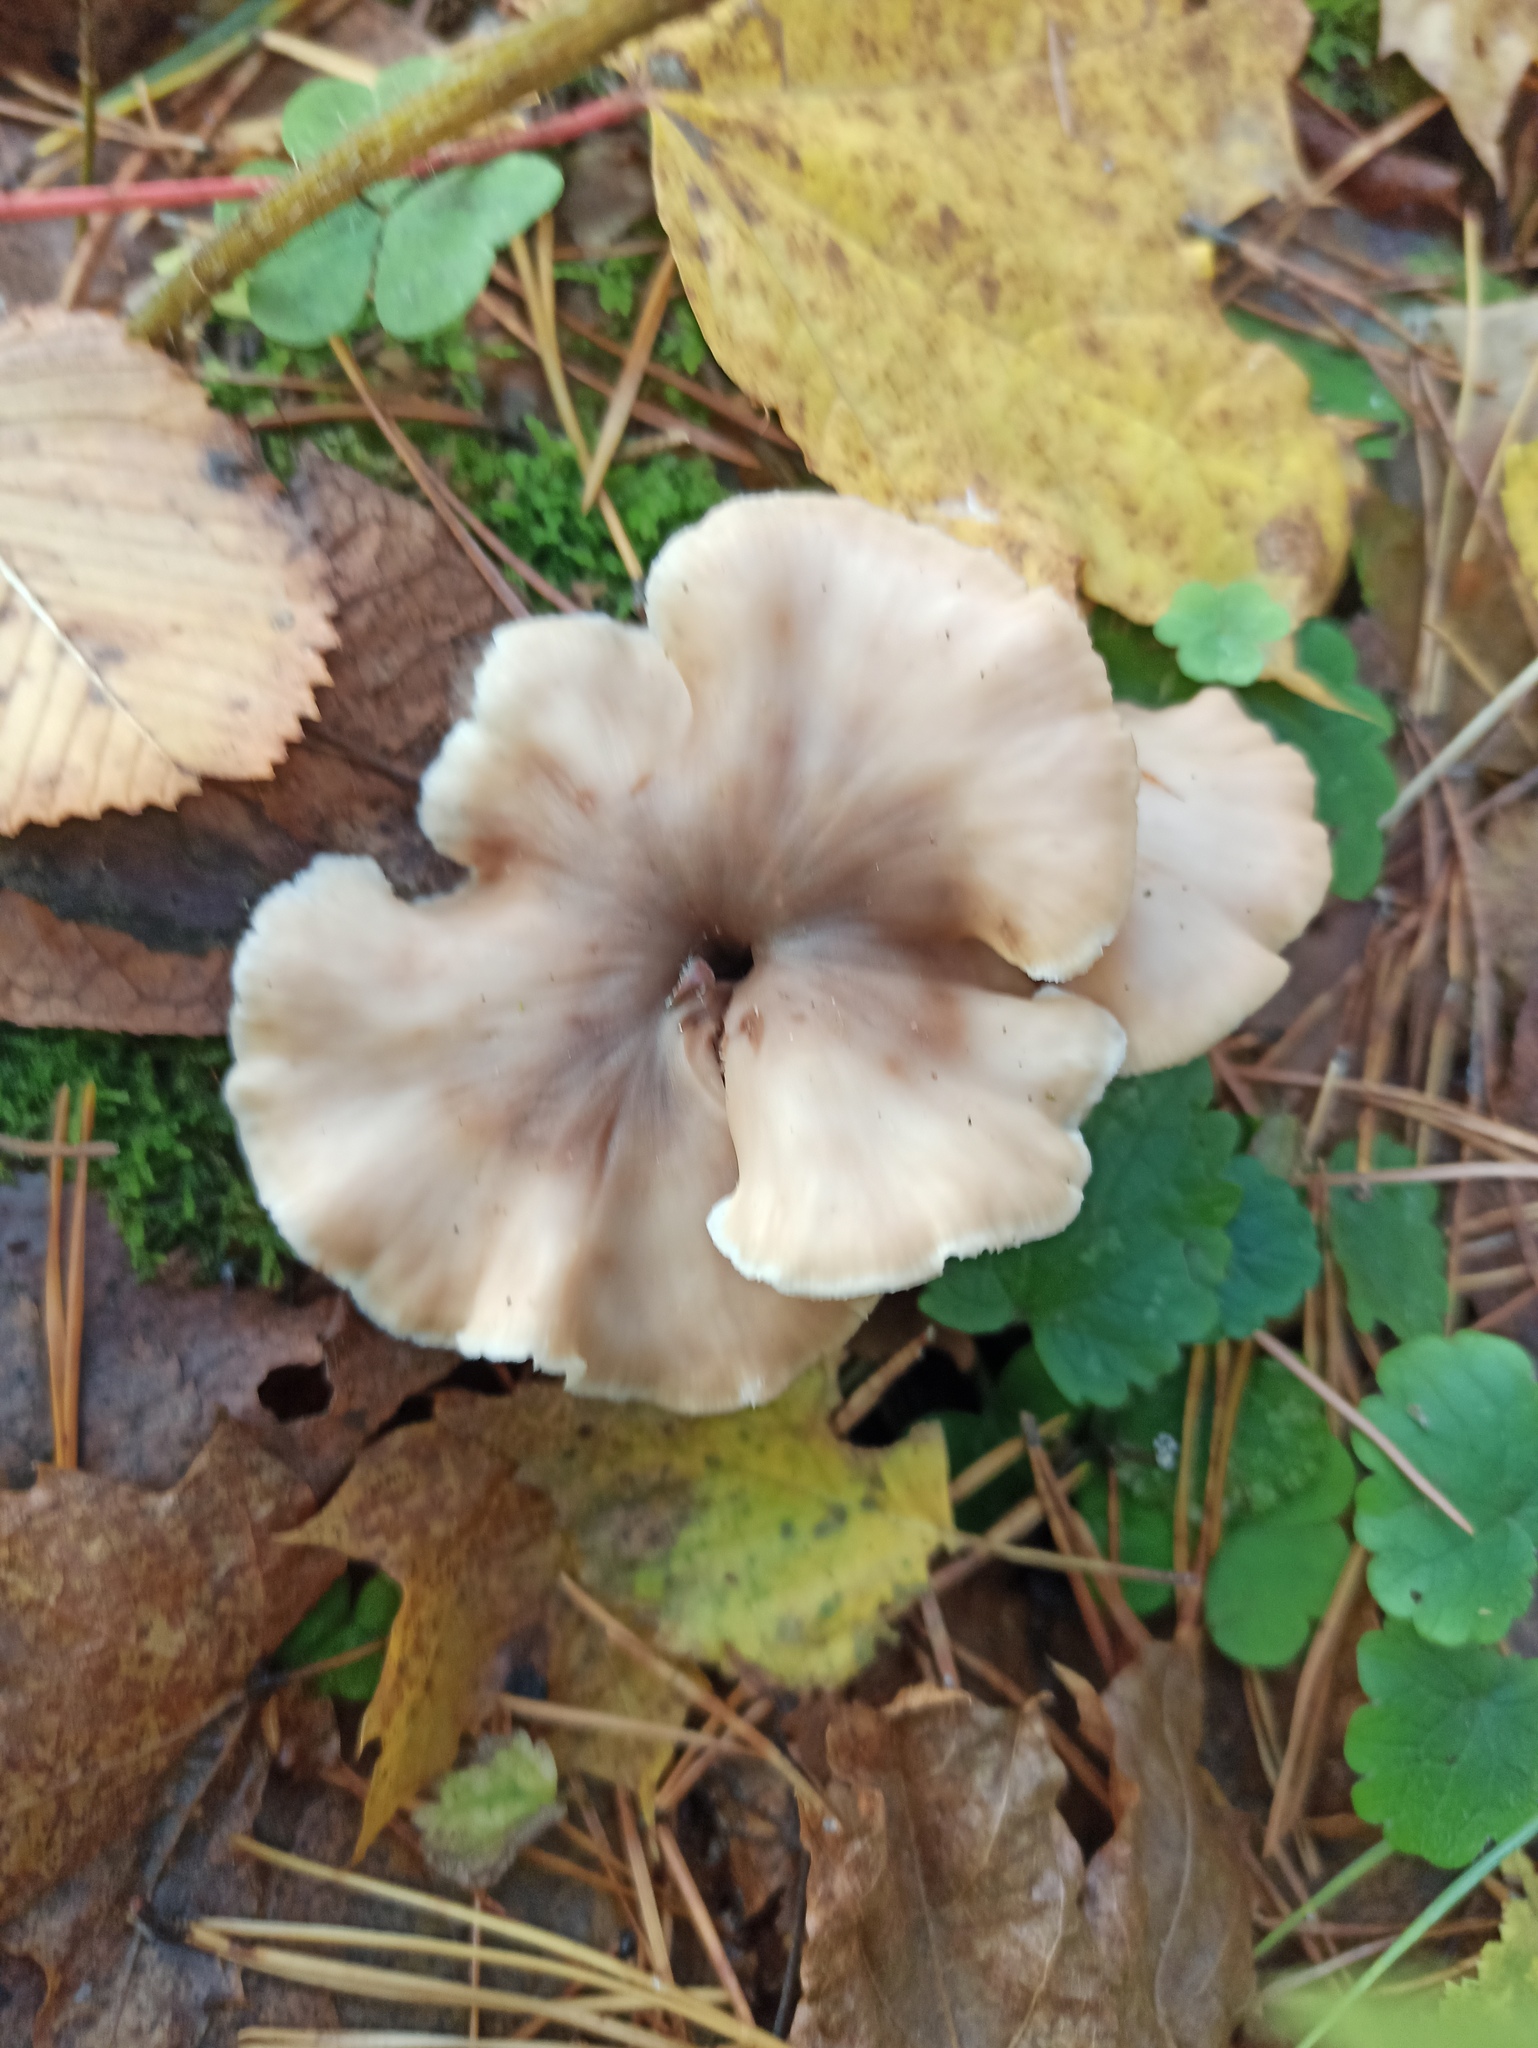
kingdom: Fungi
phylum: Basidiomycota
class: Agaricomycetes
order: Russulales
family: Auriscalpiaceae
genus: Lentinellus
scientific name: Lentinellus micheneri
